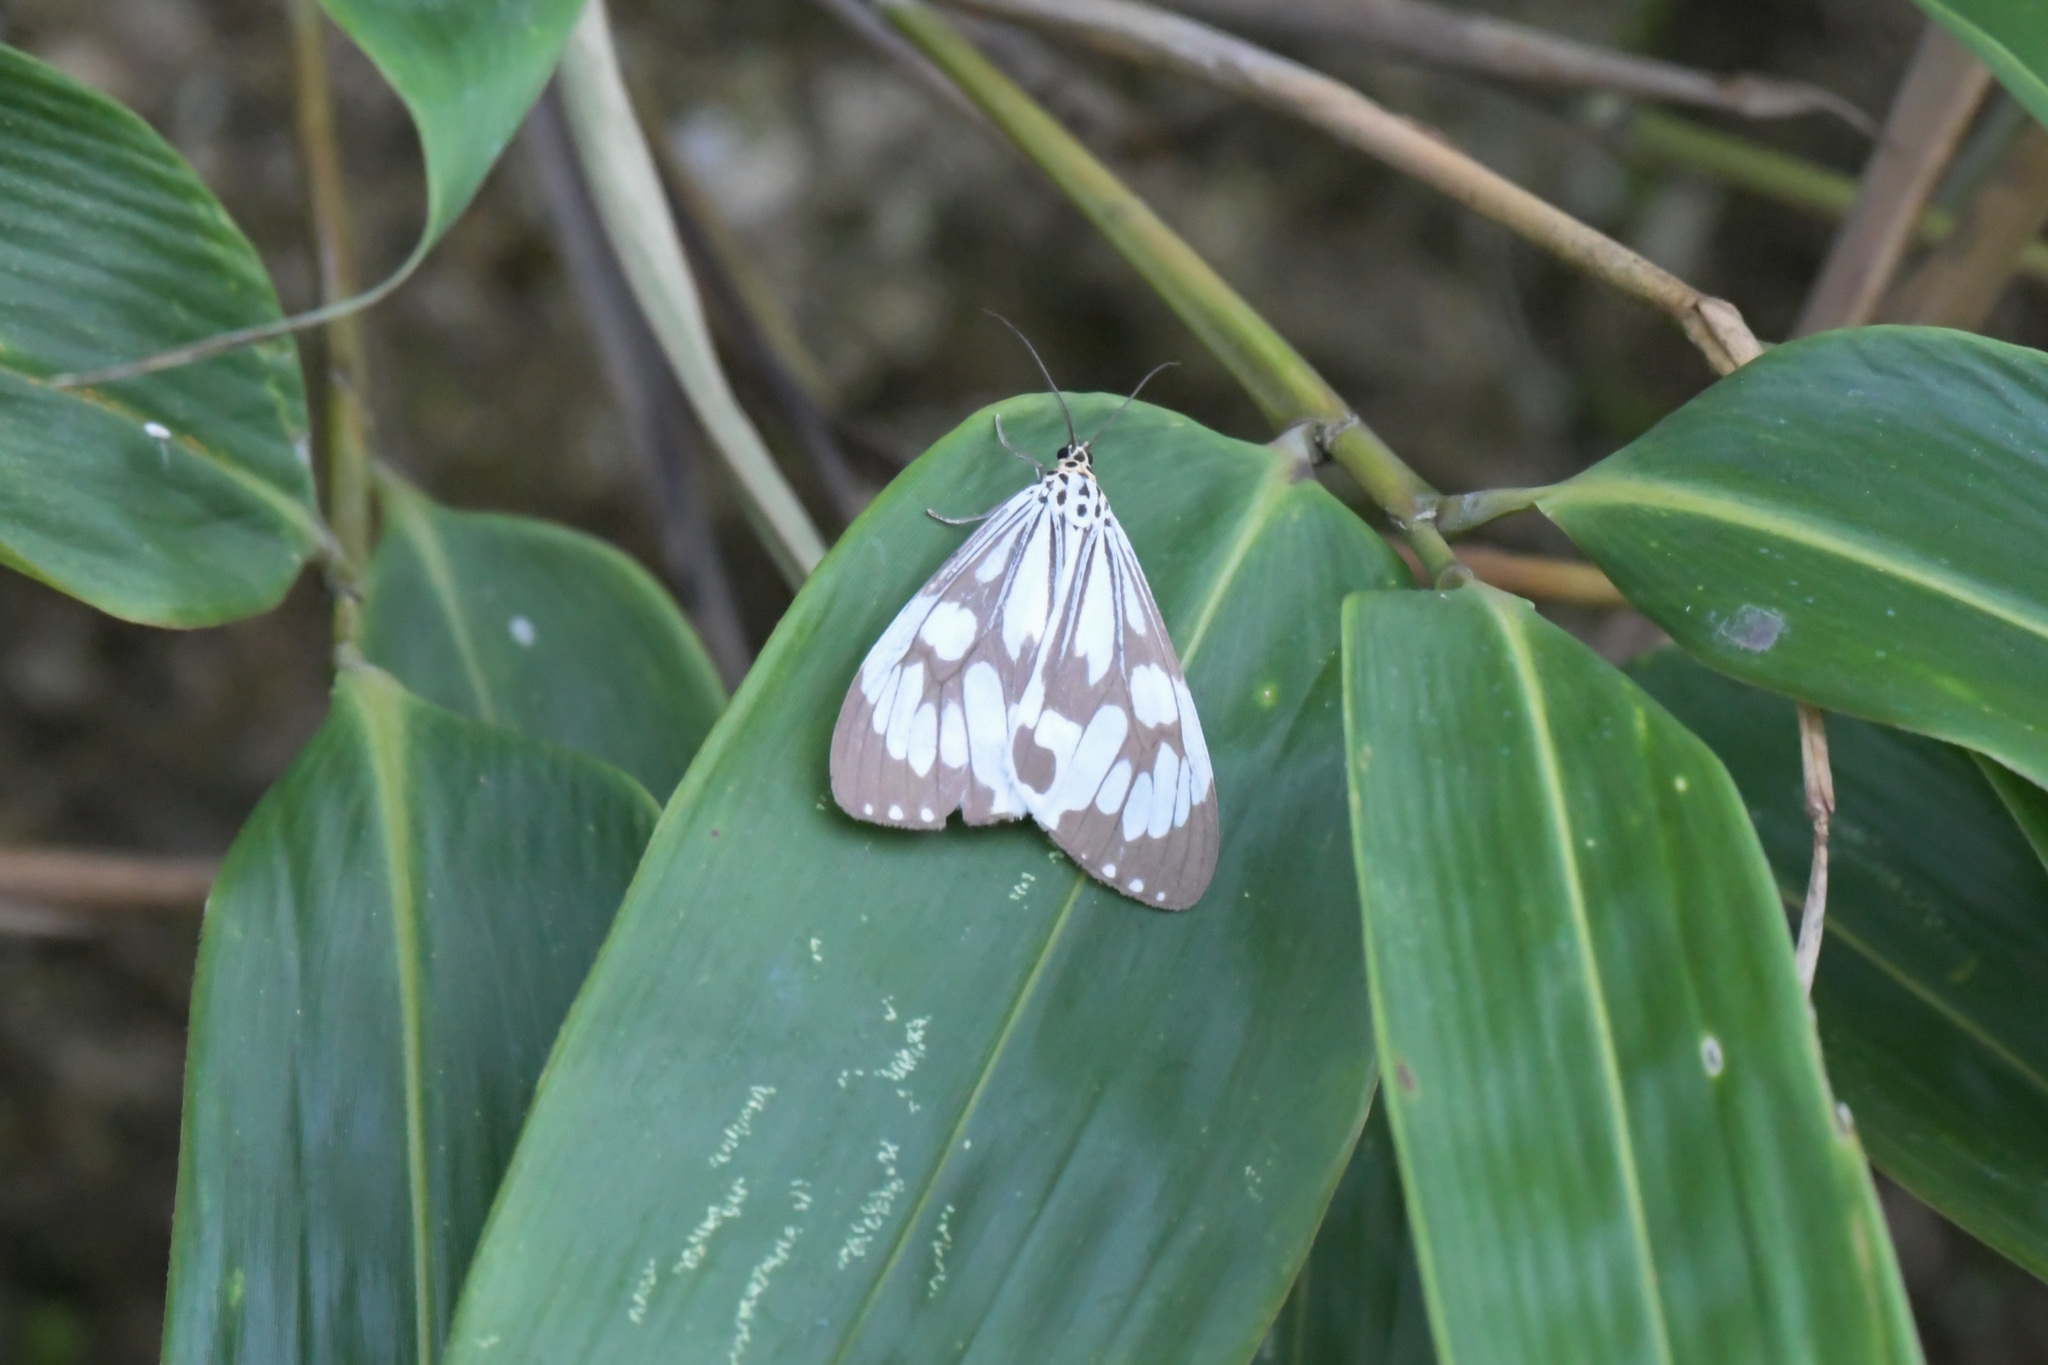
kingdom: Animalia
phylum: Arthropoda
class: Insecta
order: Lepidoptera
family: Erebidae
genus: Nyctemera
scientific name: Nyctemera adversata
